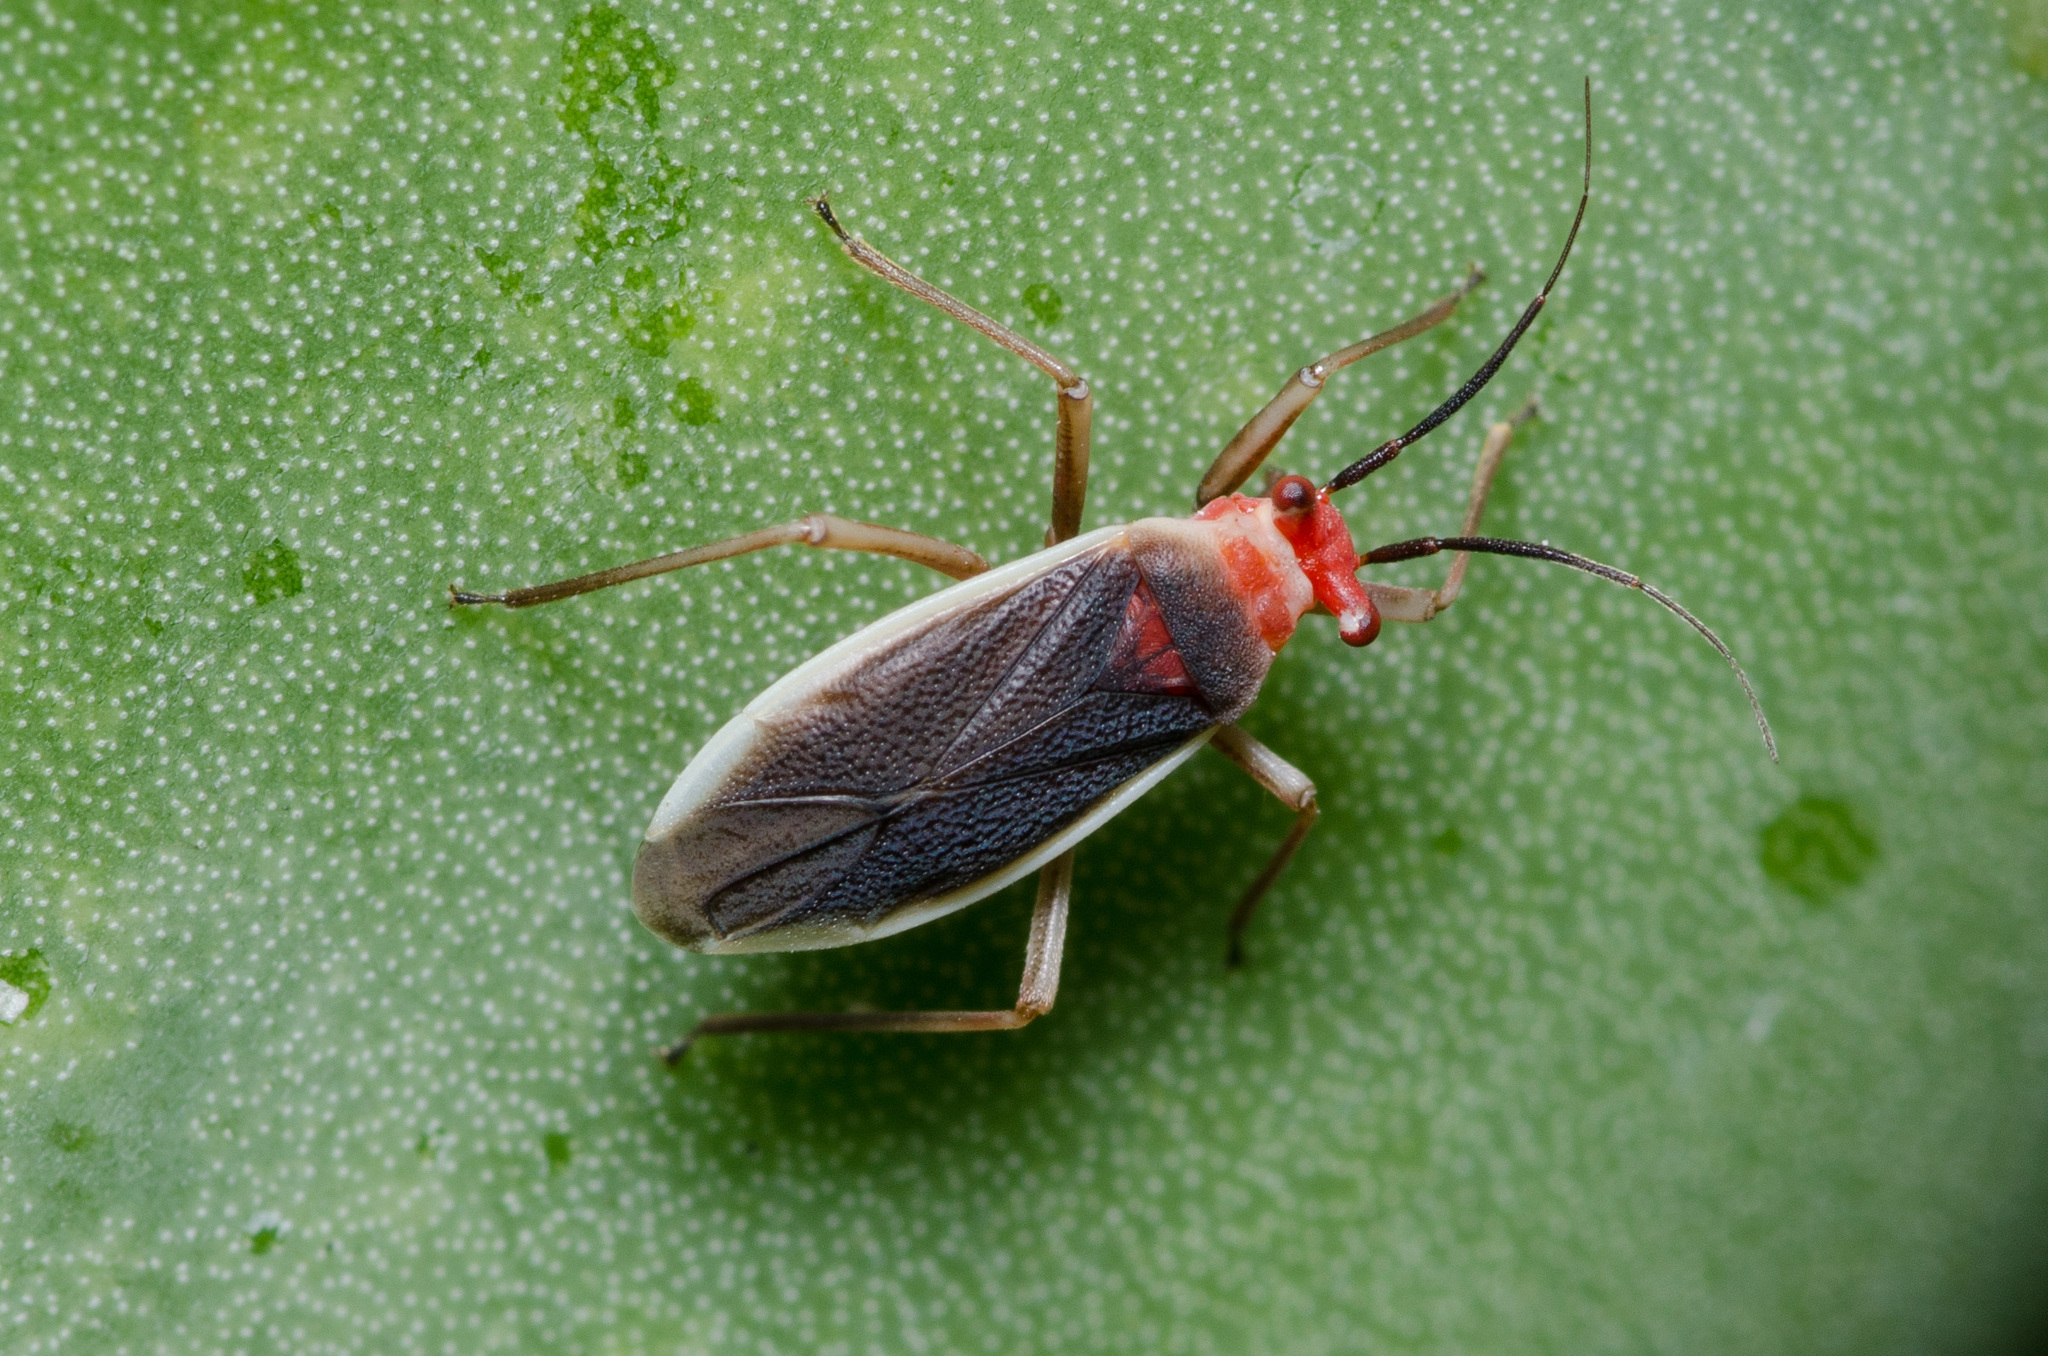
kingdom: Animalia
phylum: Arthropoda
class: Insecta
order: Hemiptera
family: Miridae
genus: Hesperolabops
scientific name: Hesperolabops gelastops
